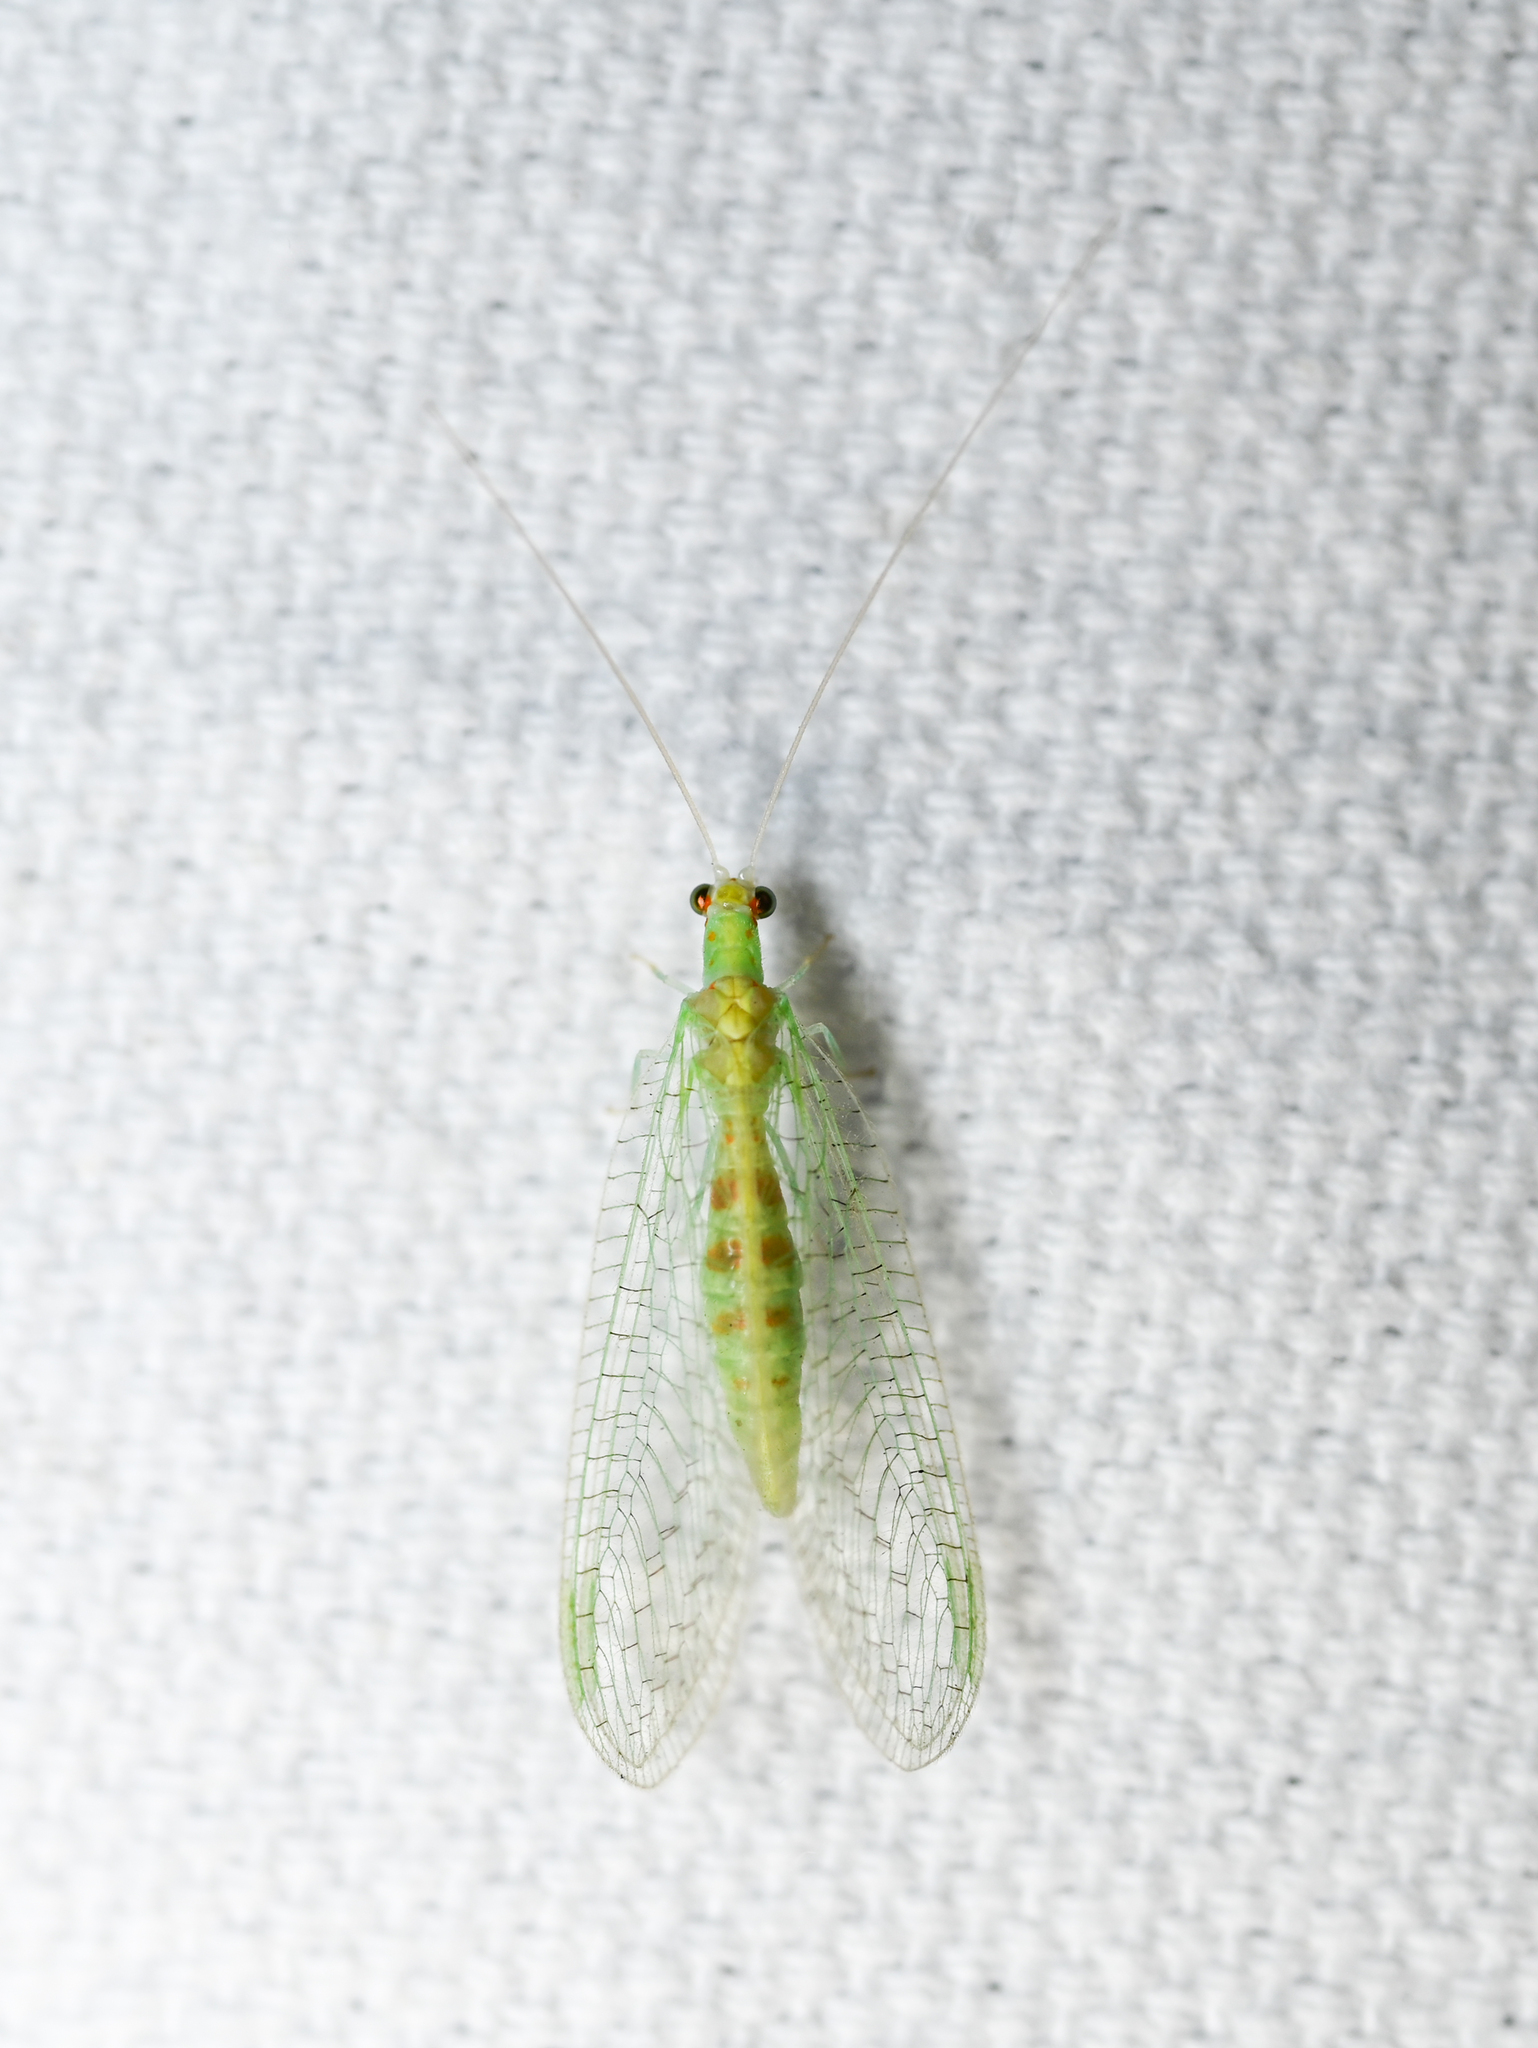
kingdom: Animalia
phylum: Arthropoda
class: Insecta
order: Neuroptera
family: Chrysopidae
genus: Chrysopa
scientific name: Chrysopa quadripunctata
